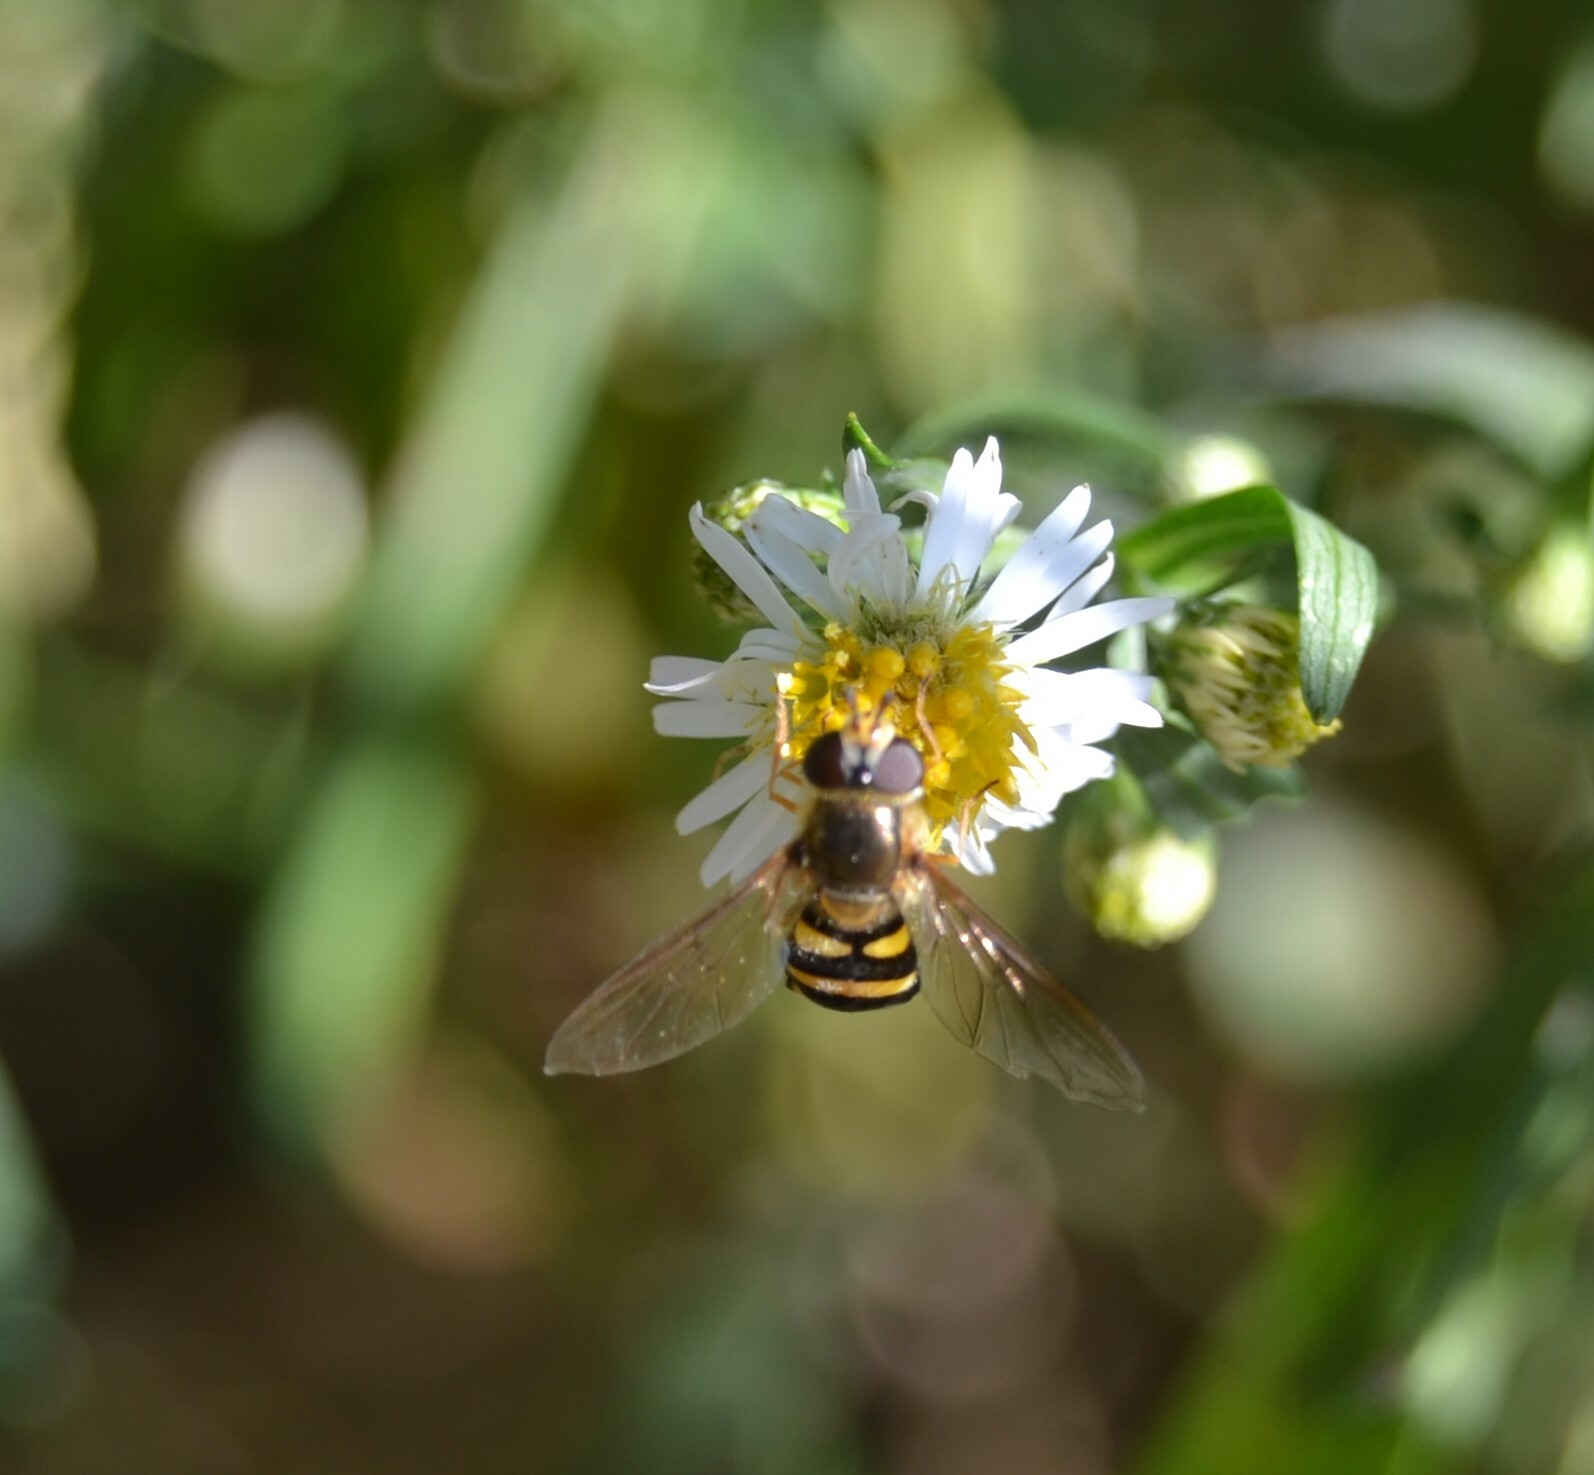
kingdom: Animalia
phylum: Arthropoda
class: Insecta
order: Diptera
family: Syrphidae
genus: Eupeodes
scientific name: Eupeodes
